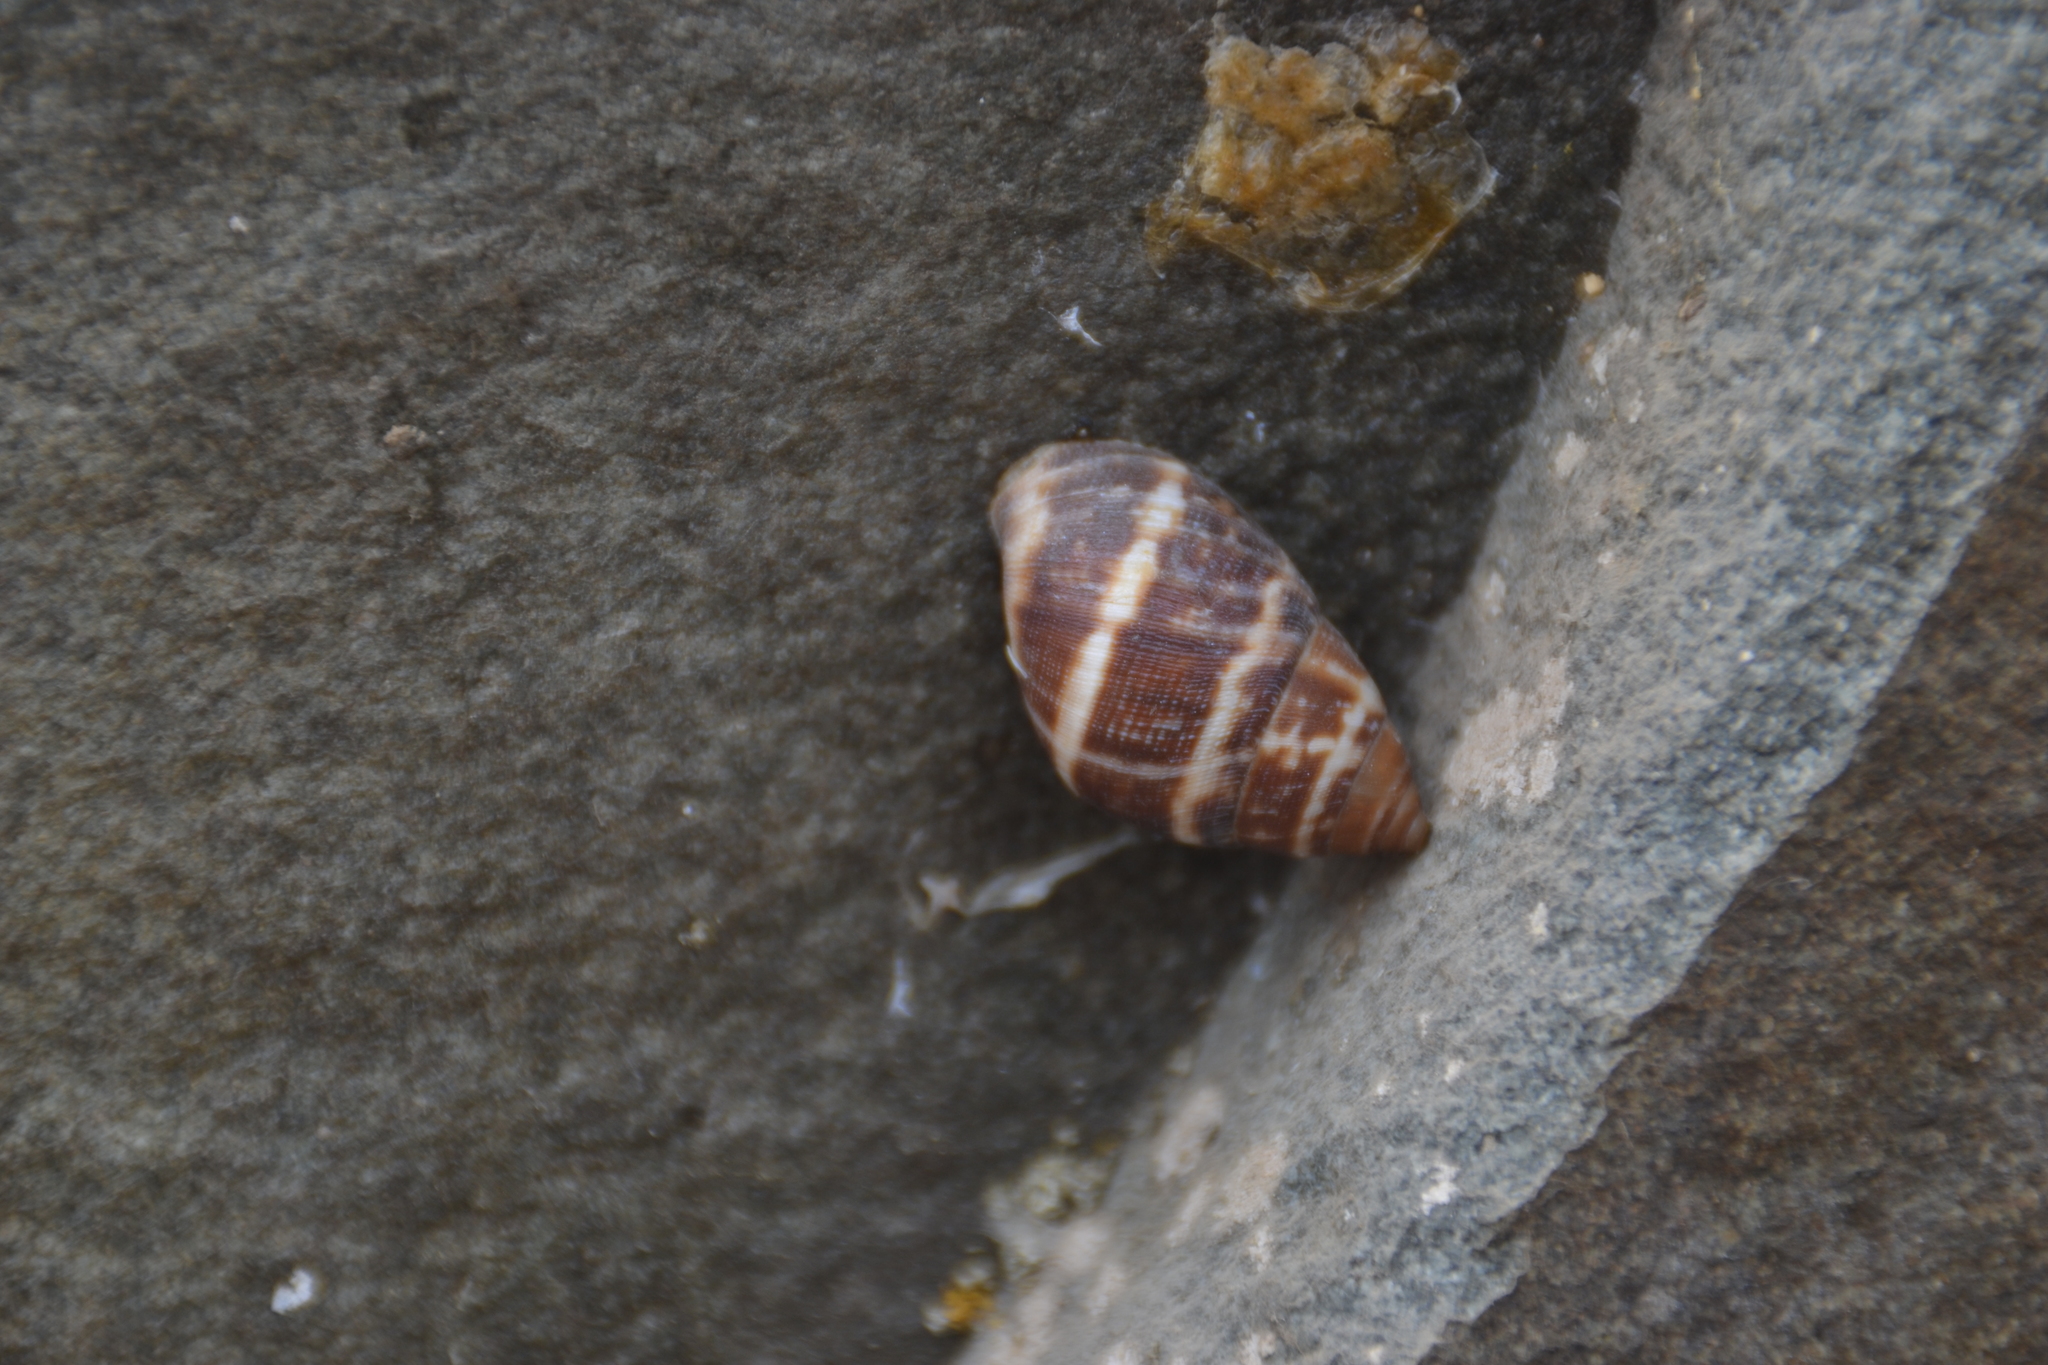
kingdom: Animalia
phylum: Mollusca
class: Gastropoda
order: Stylommatophora
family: Bulimulidae
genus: Scutalus
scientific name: Scutalus versicolor
